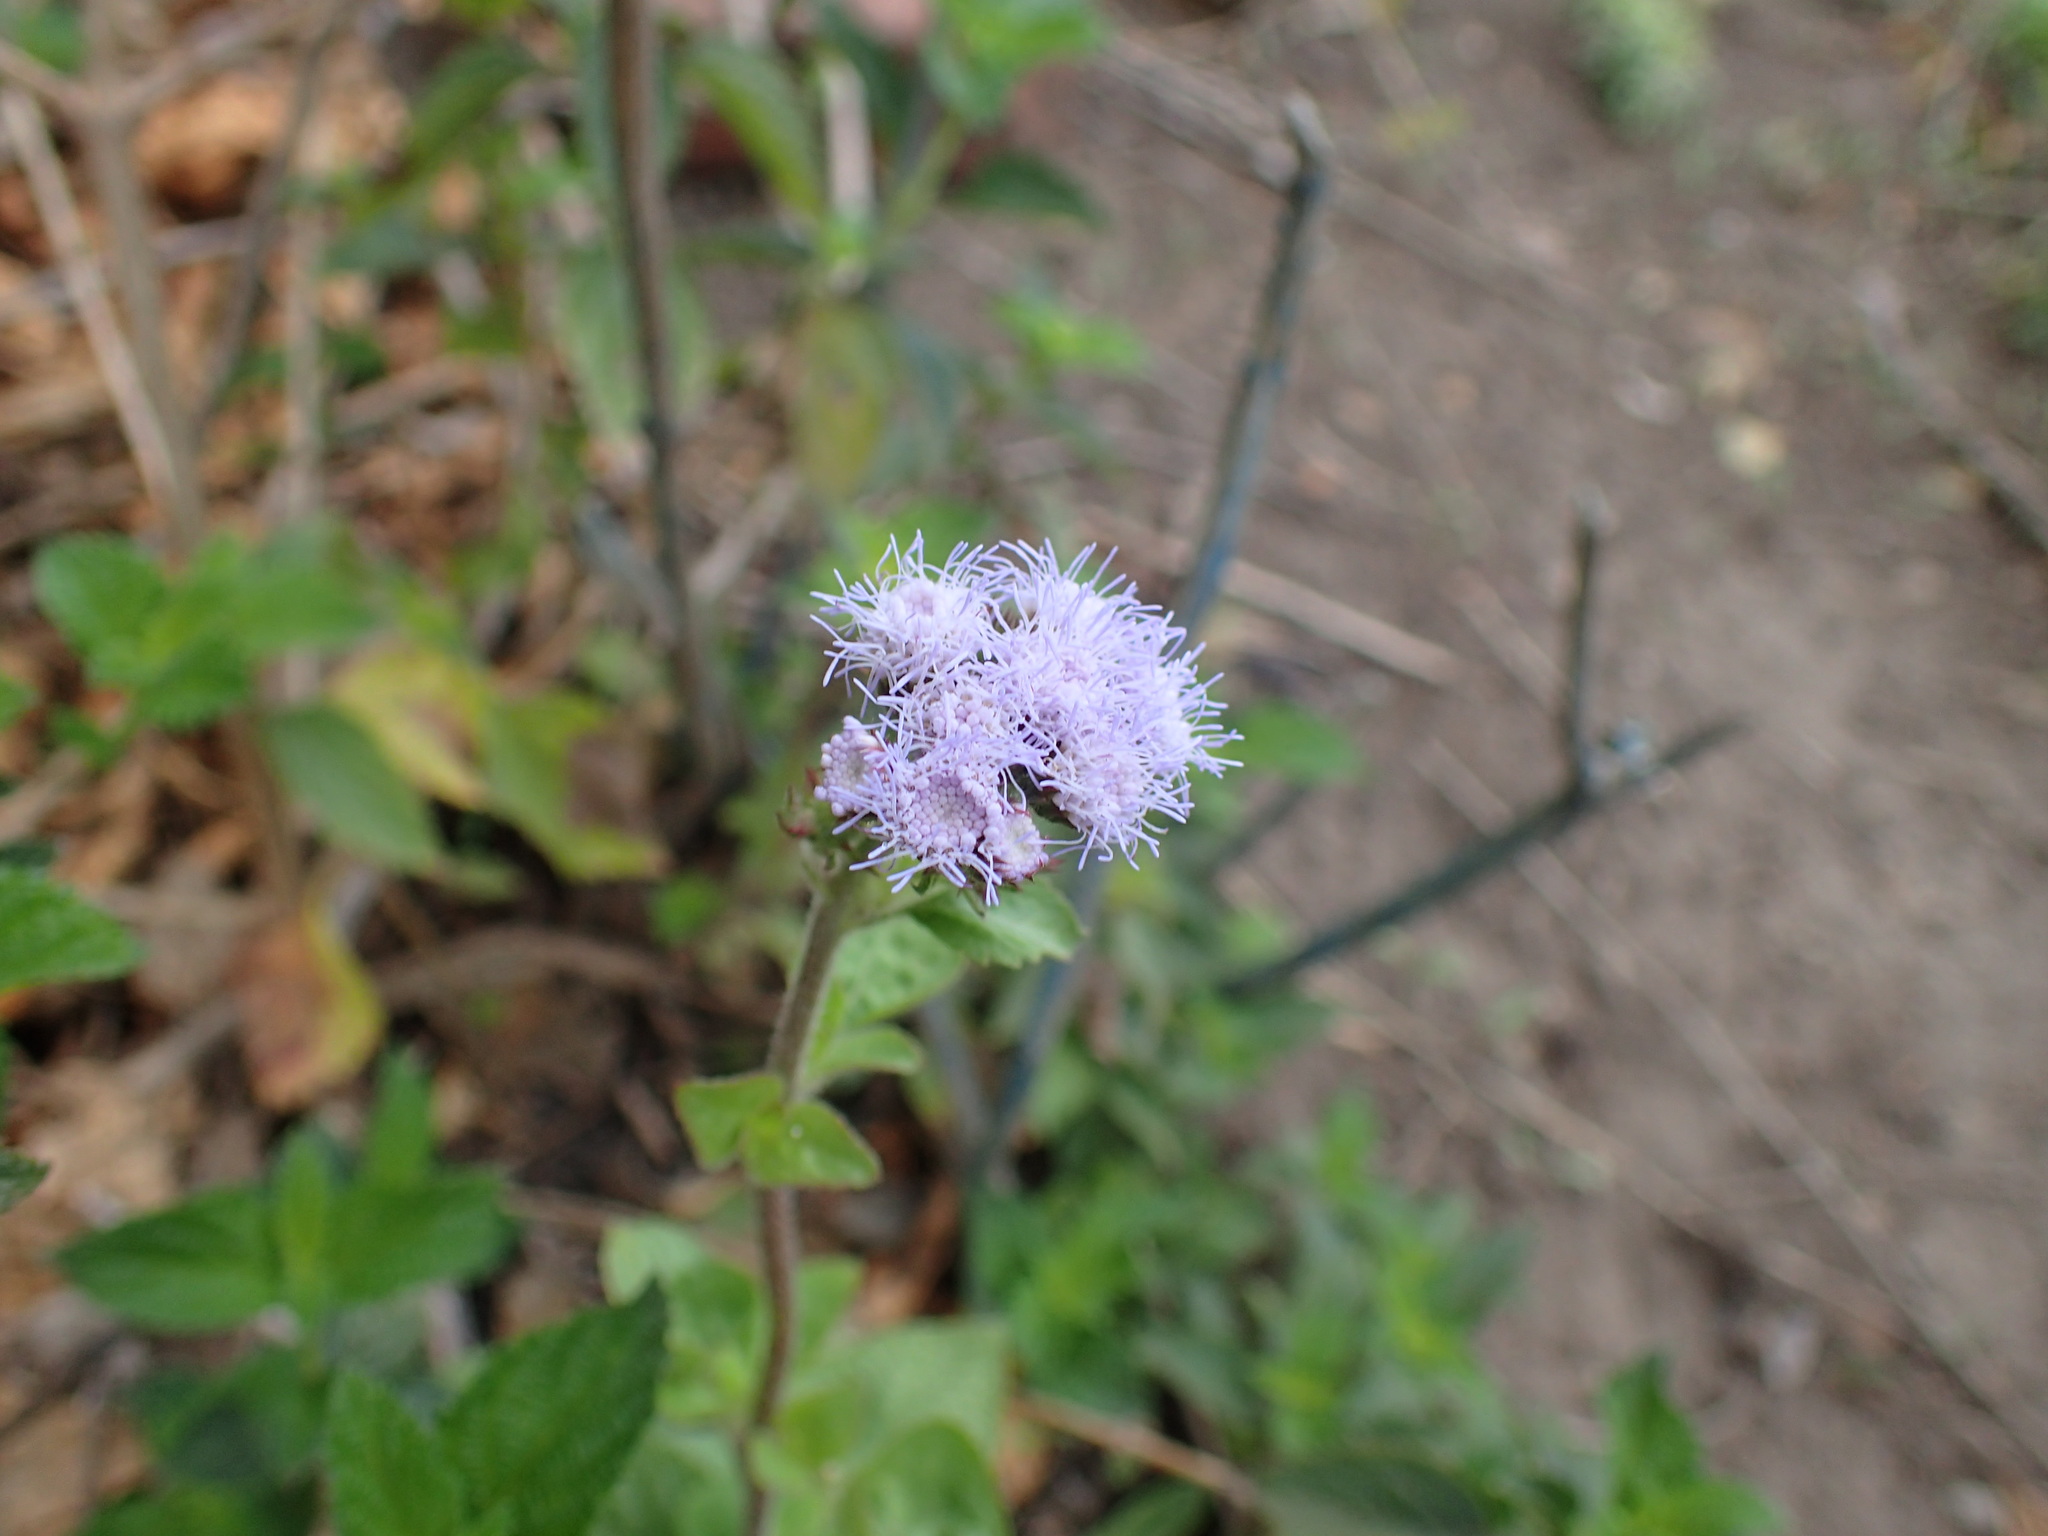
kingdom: Plantae
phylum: Tracheophyta
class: Magnoliopsida
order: Asterales
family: Asteraceae
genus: Ageratum
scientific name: Ageratum houstonianum
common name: Bluemink
